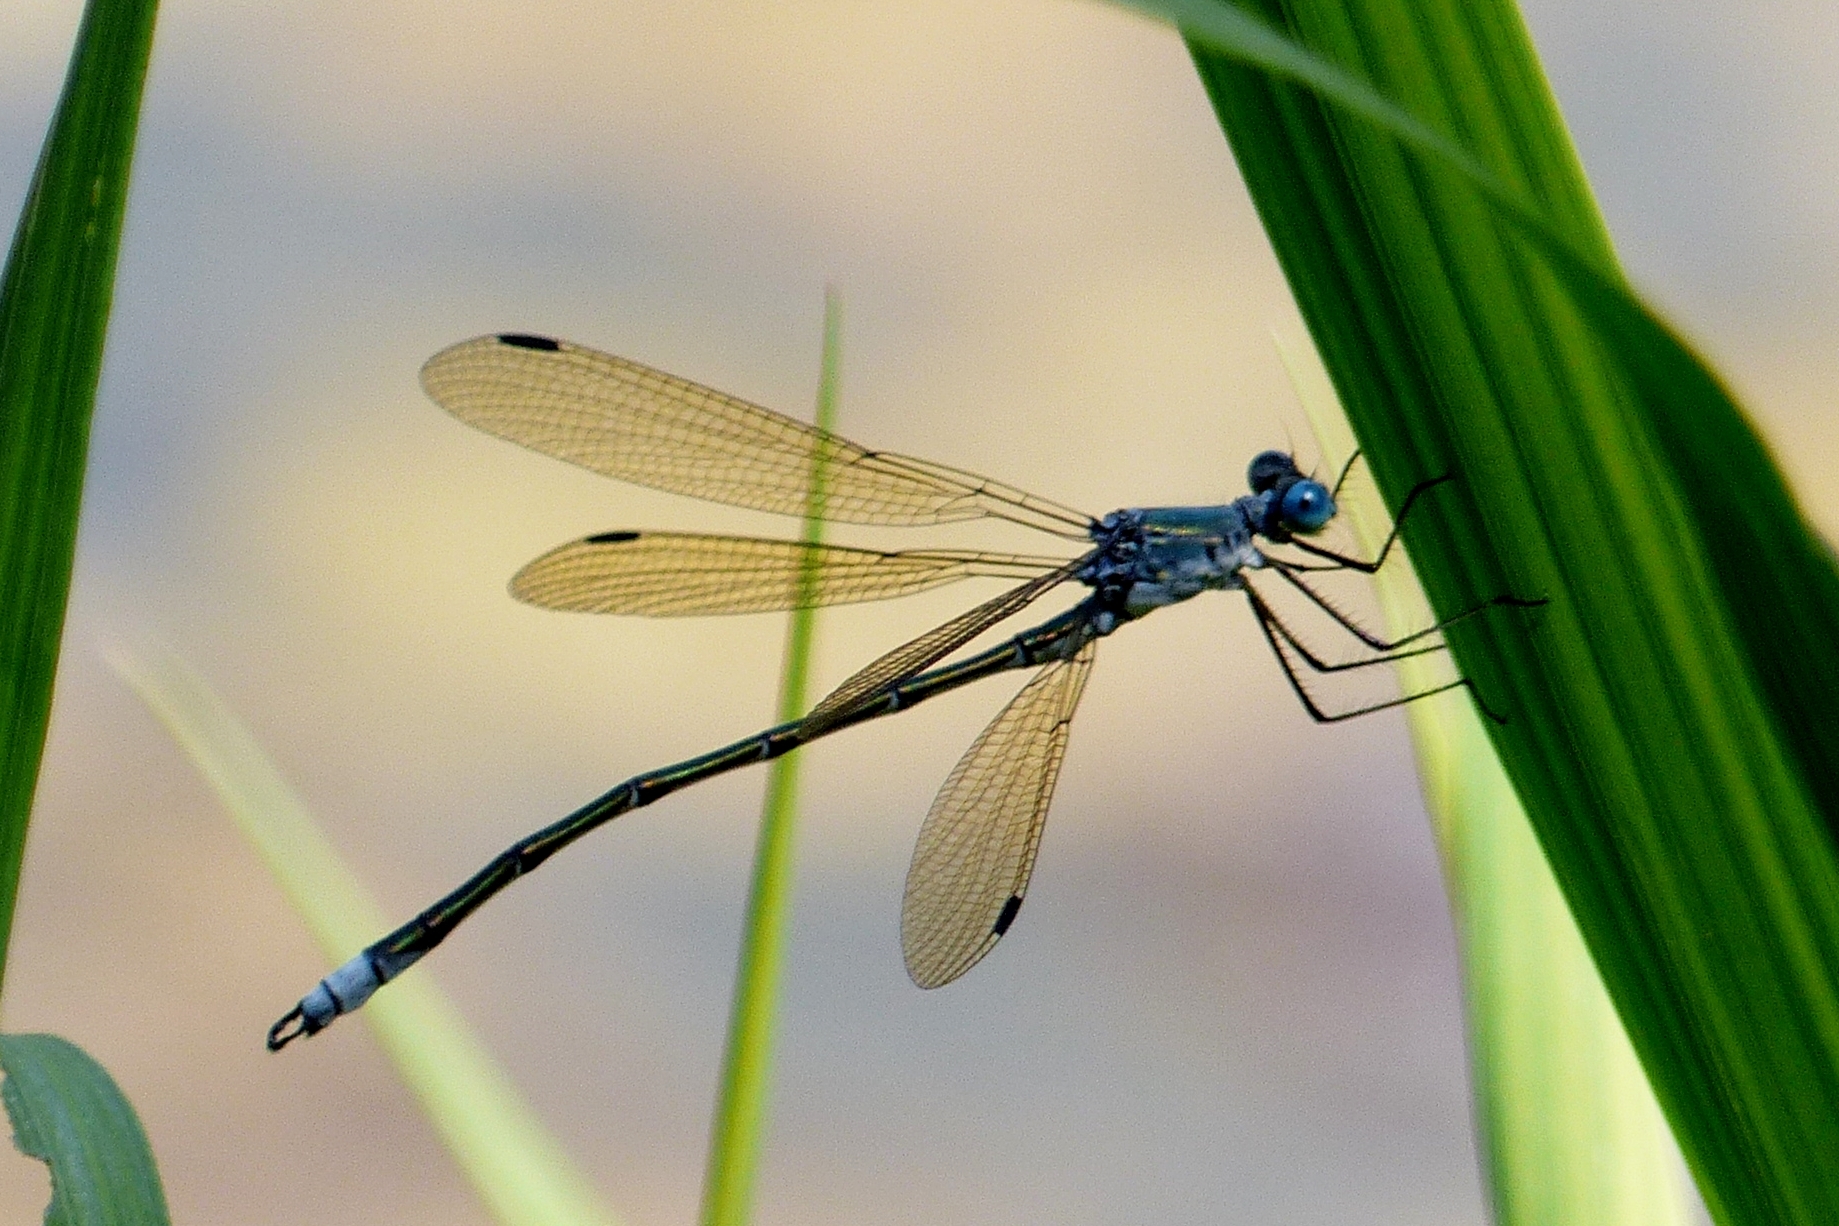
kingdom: Animalia
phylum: Arthropoda
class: Insecta
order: Odonata
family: Lestidae
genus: Lestes
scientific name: Lestes eurinus
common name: Amber-winged spreadwing
